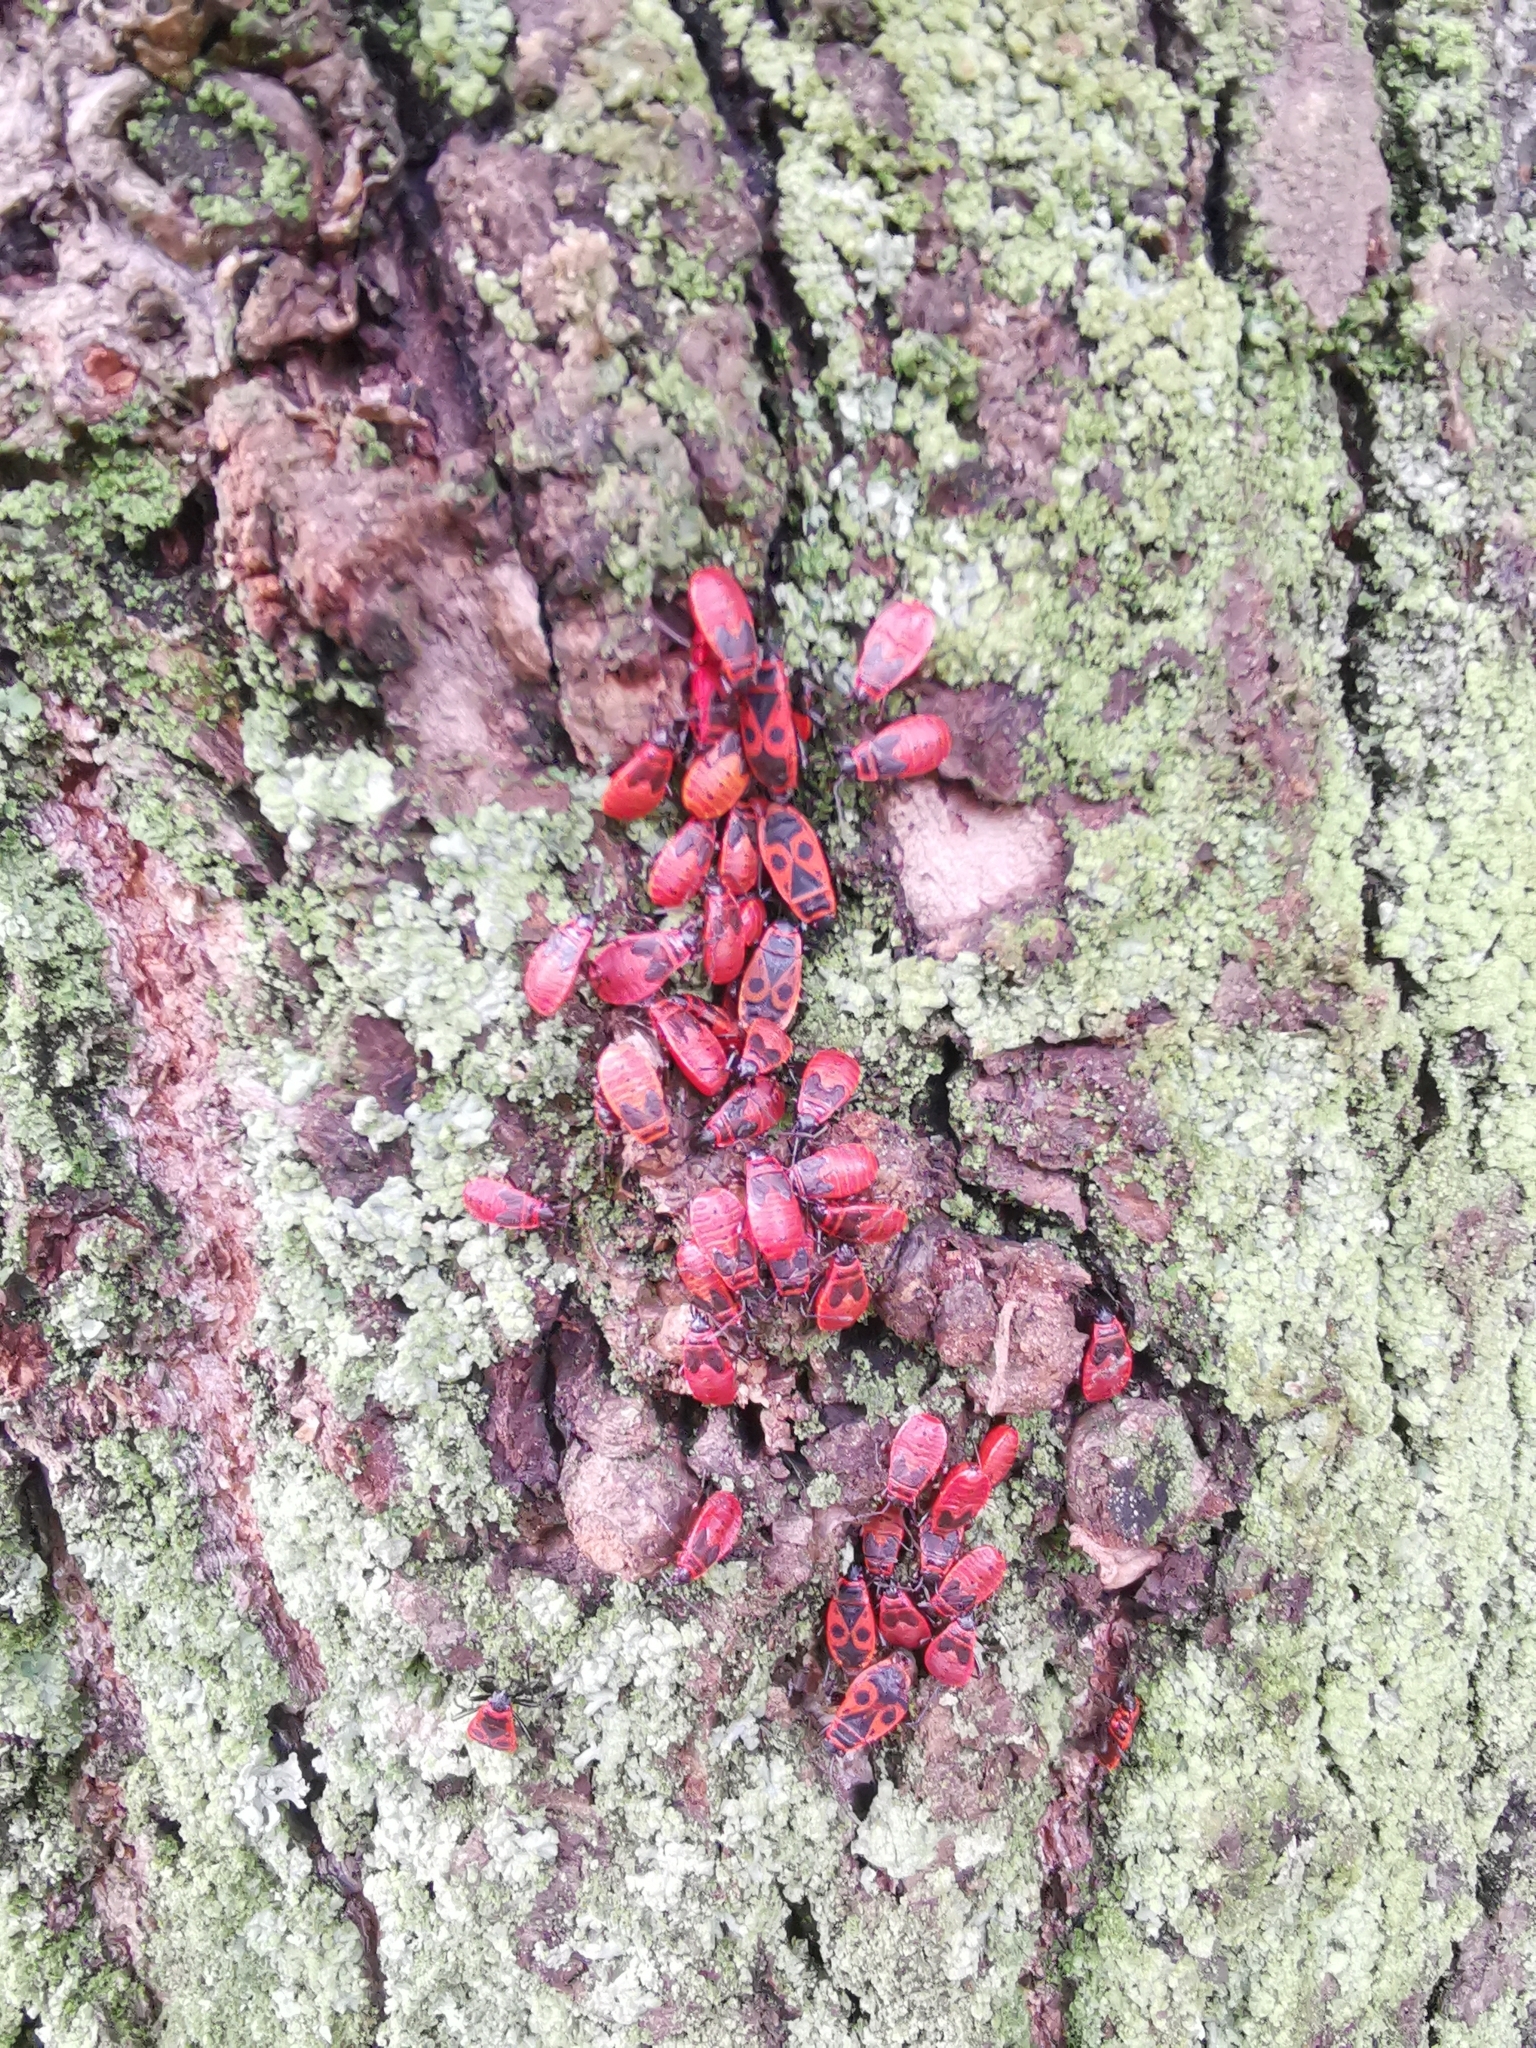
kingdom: Animalia
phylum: Arthropoda
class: Insecta
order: Hemiptera
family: Pyrrhocoridae
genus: Pyrrhocoris
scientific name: Pyrrhocoris apterus
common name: Firebug
